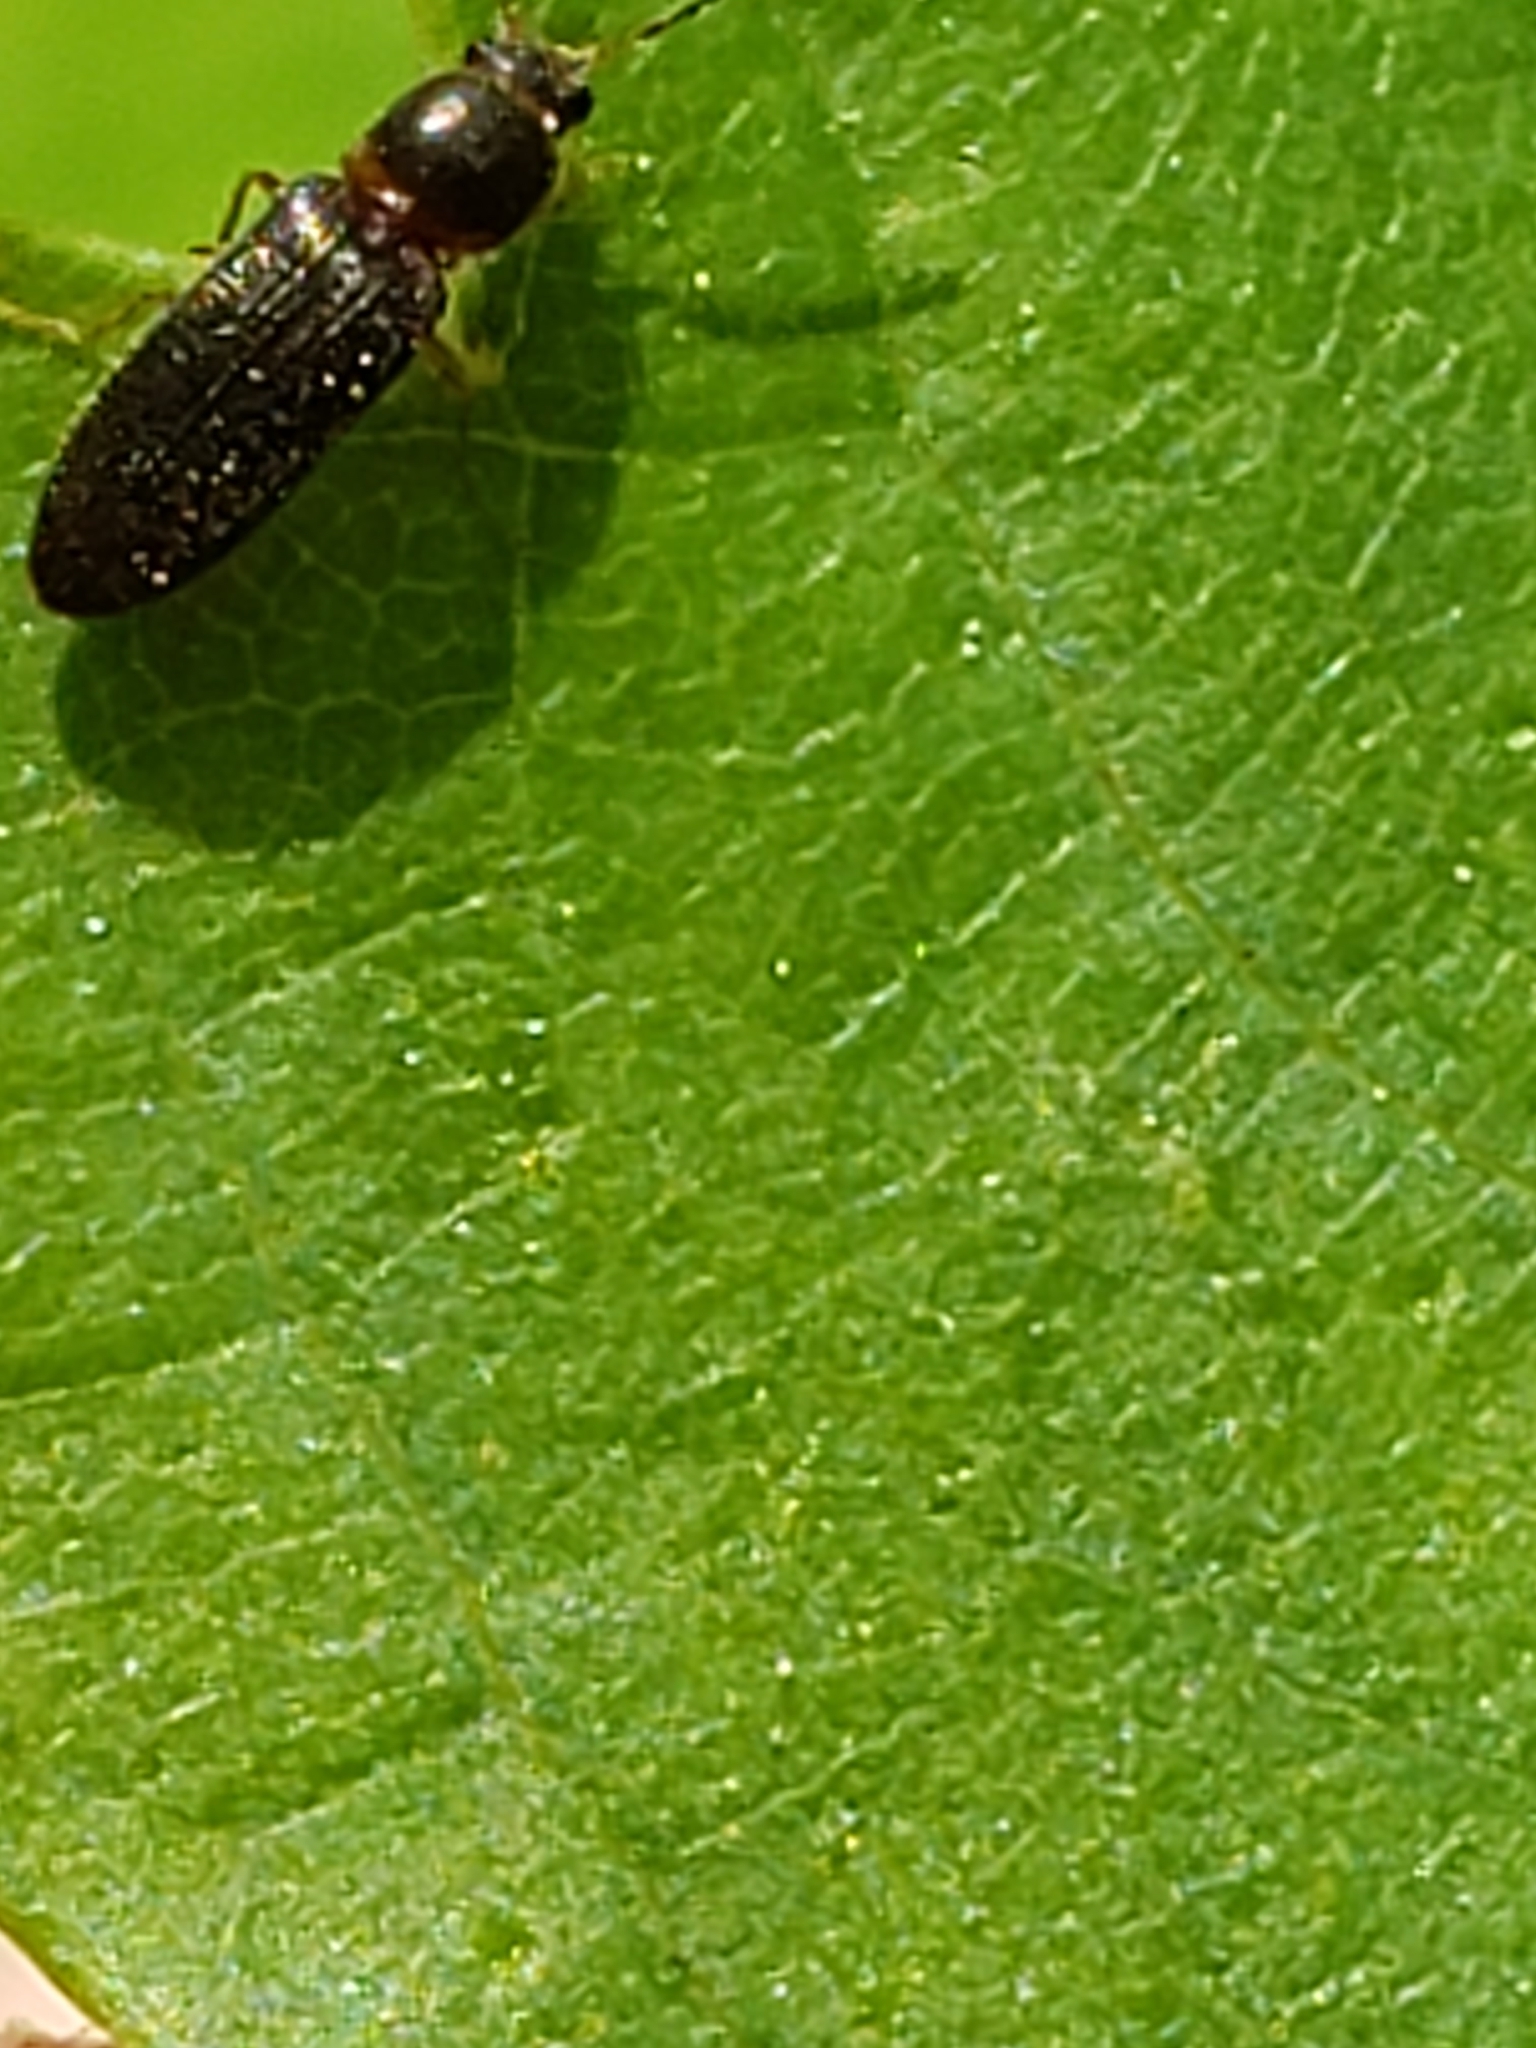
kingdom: Animalia
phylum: Arthropoda
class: Insecta
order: Coleoptera
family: Elateridae
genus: Tetralimonius
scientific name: Tetralimonius
